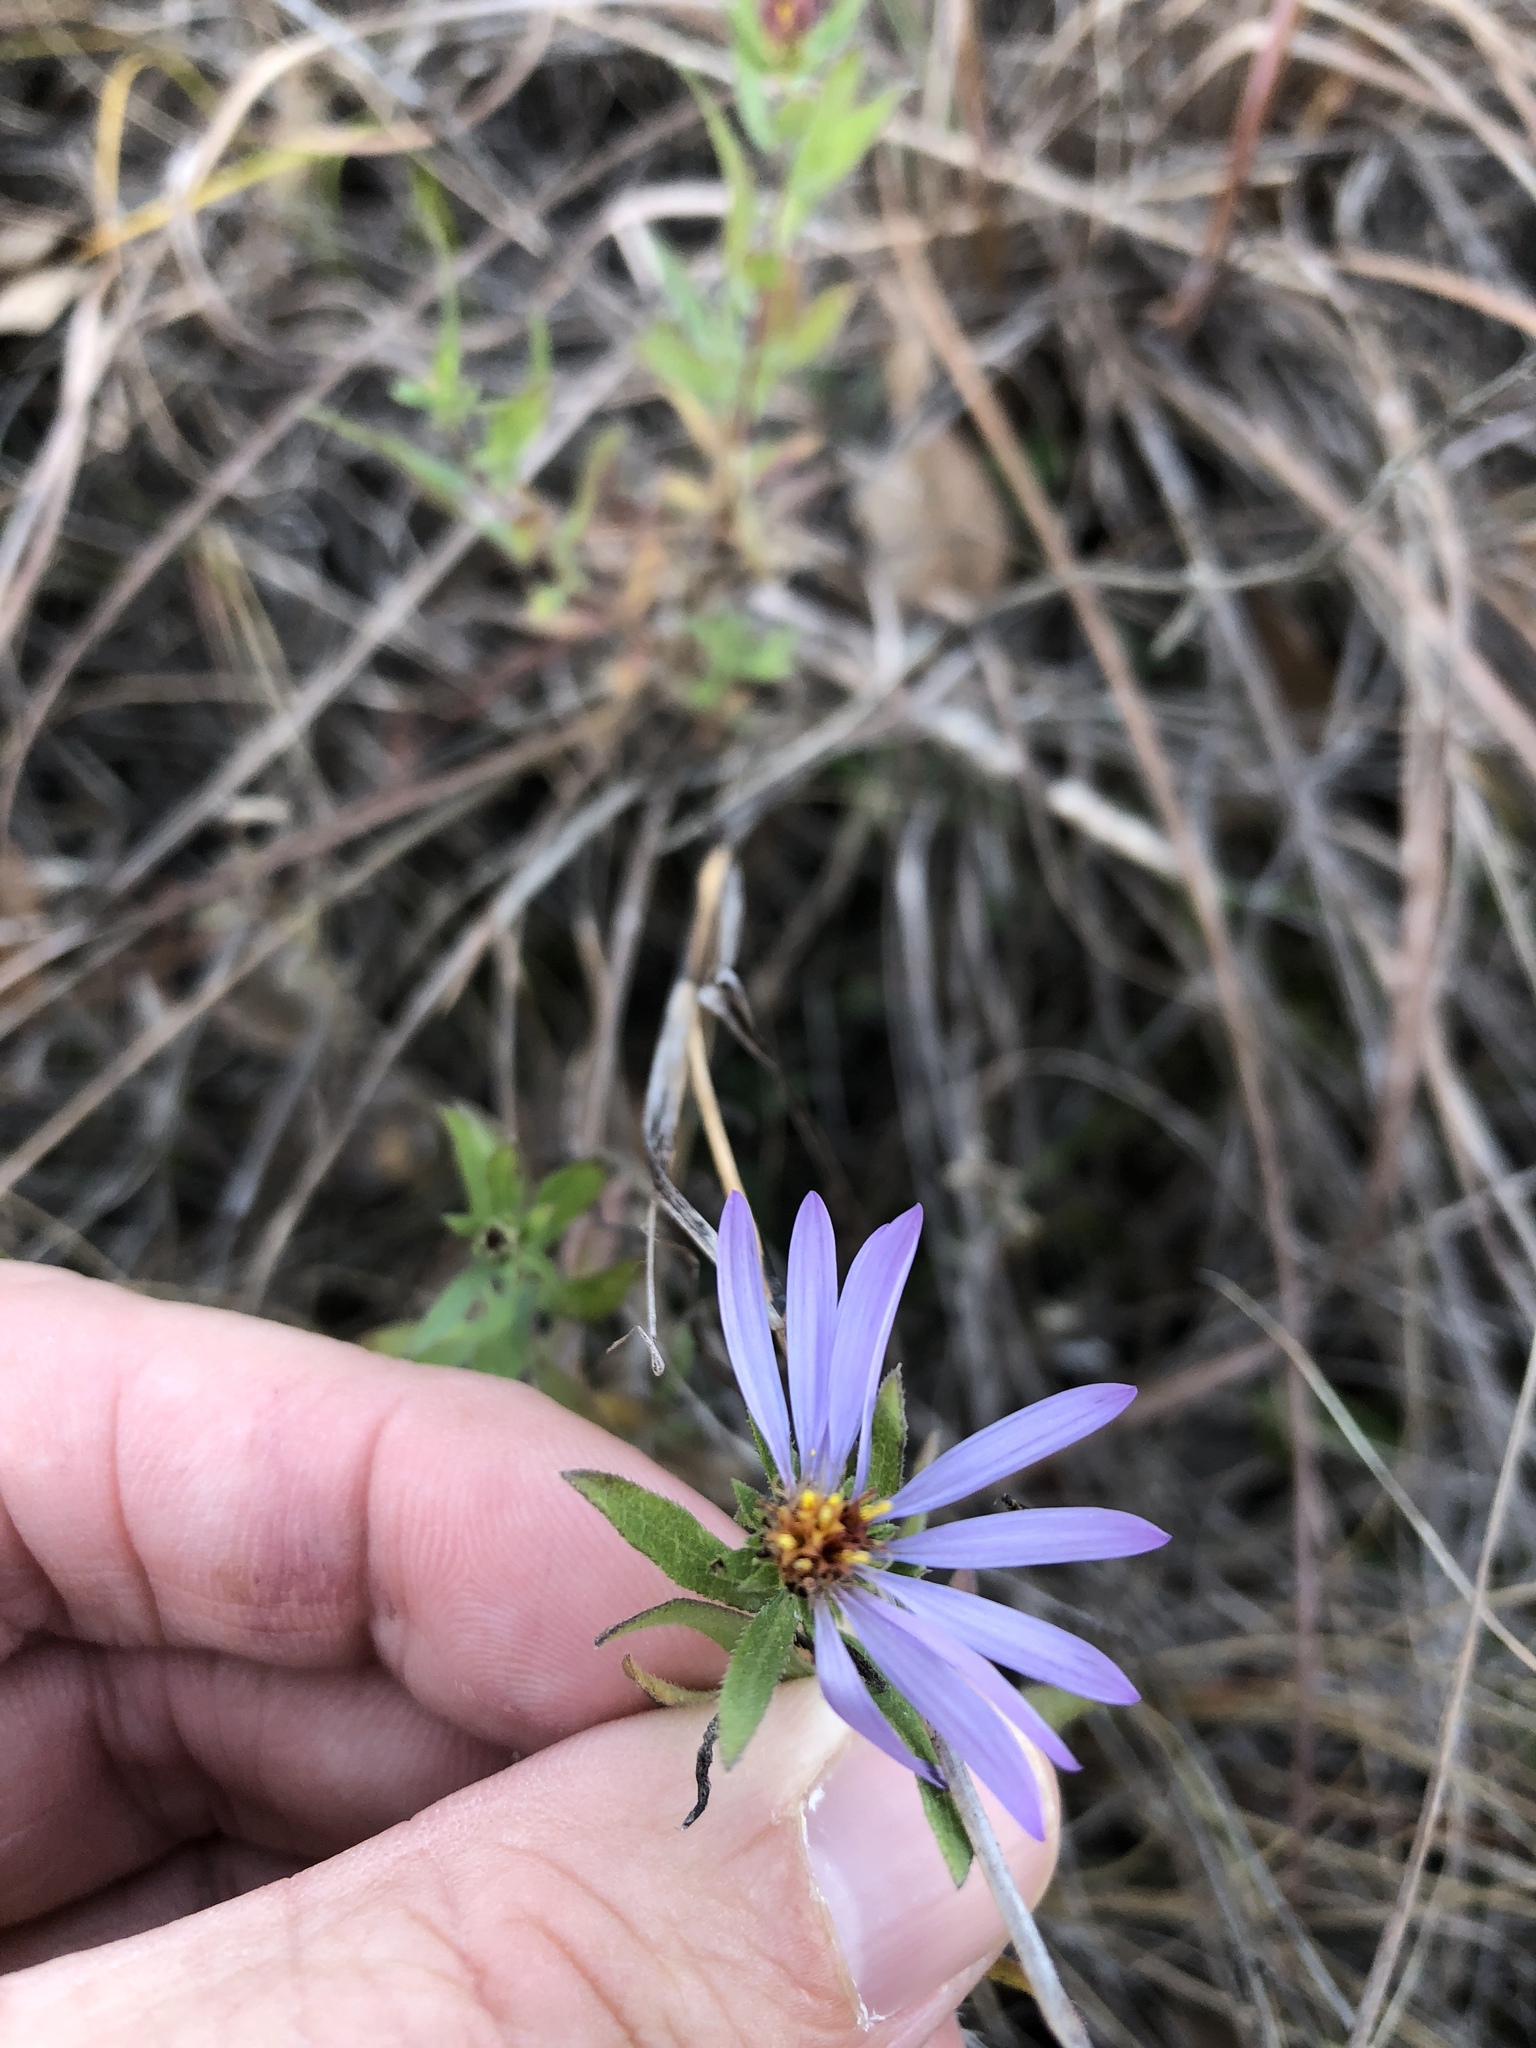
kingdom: Plantae
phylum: Tracheophyta
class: Magnoliopsida
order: Asterales
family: Asteraceae
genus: Symphyotrichum
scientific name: Symphyotrichum oblongifolium
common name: Aromatic aster
